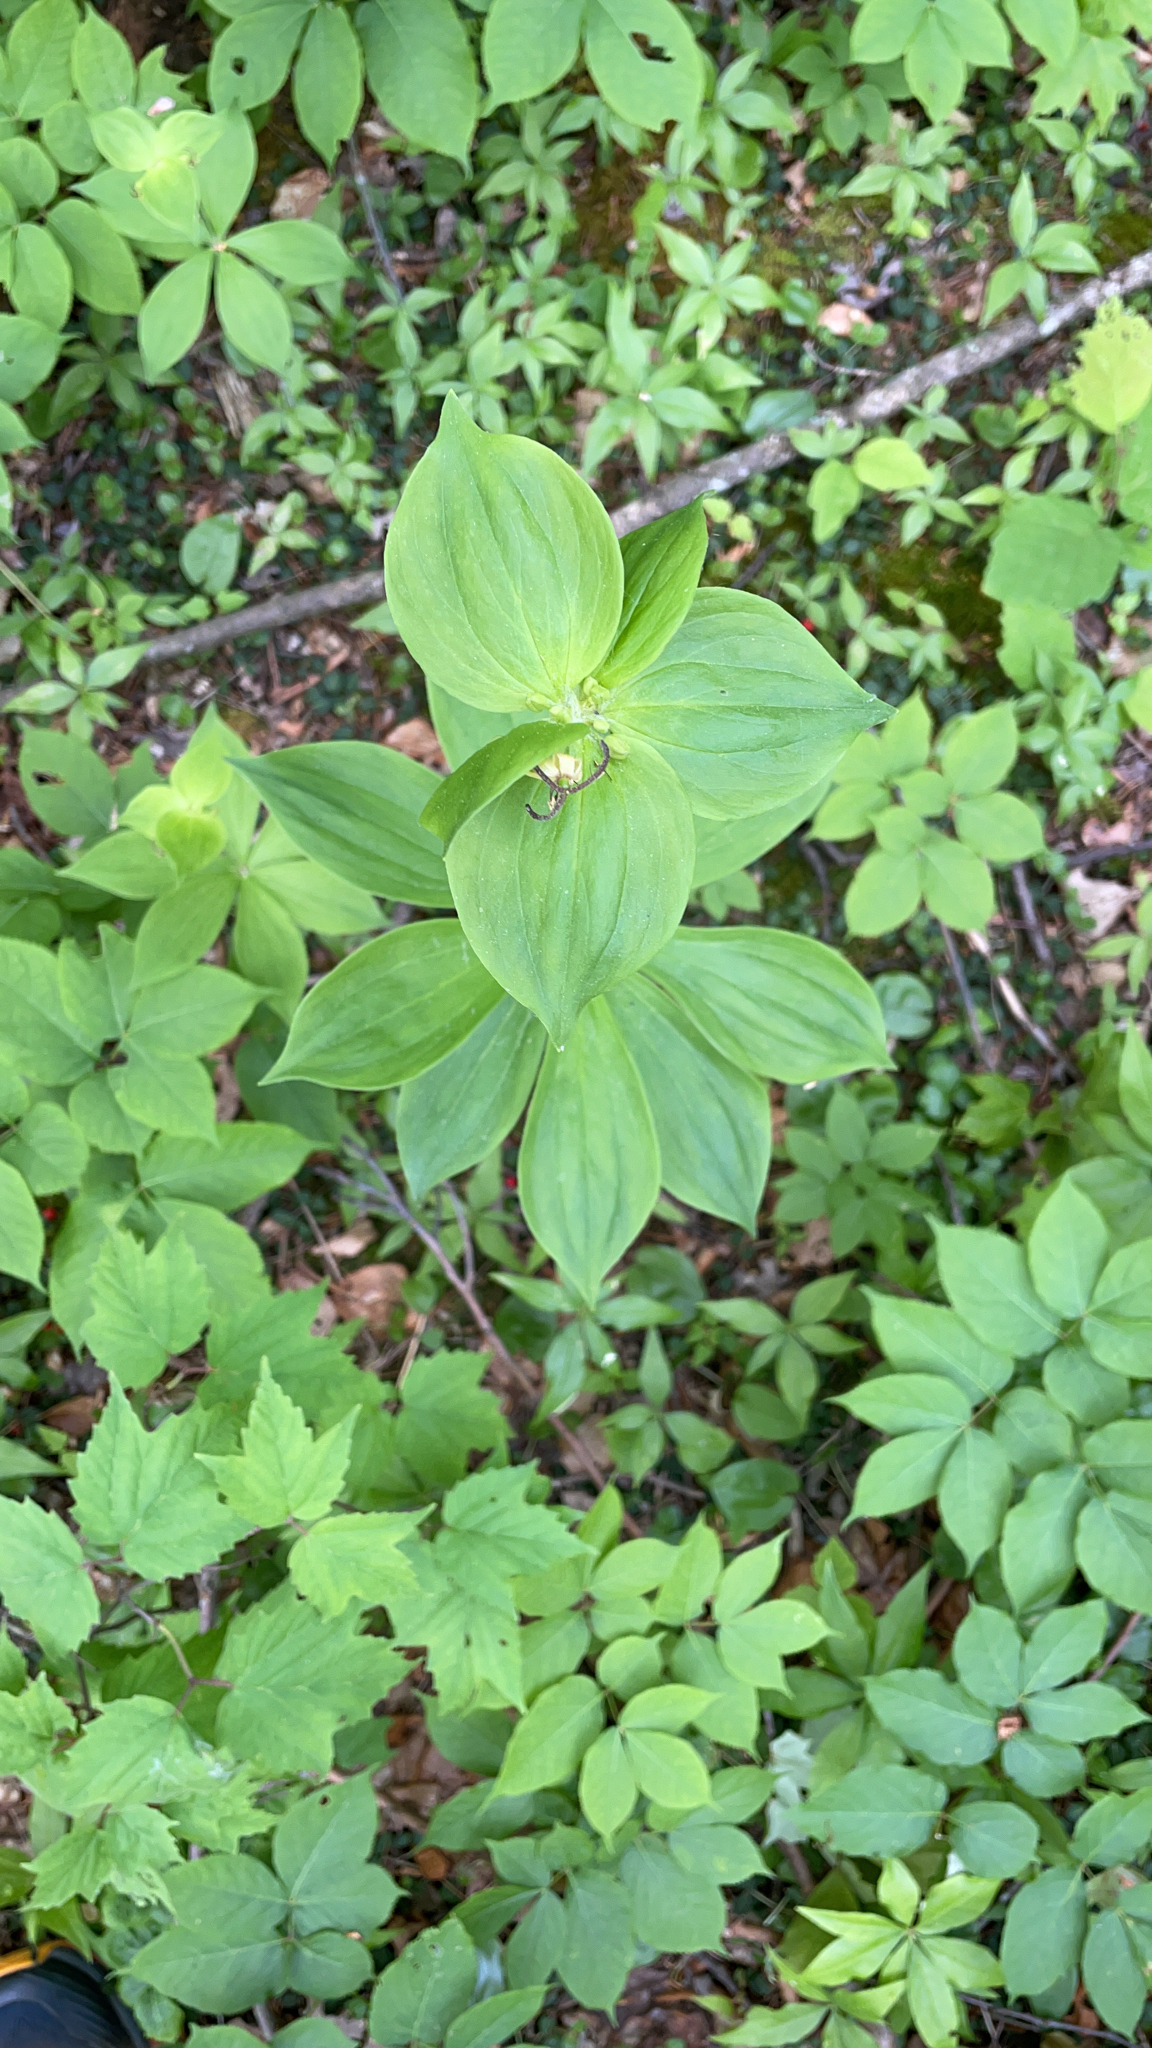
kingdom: Plantae
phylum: Tracheophyta
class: Liliopsida
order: Liliales
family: Liliaceae
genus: Medeola
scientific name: Medeola virginiana
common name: Indian cucumber-root
